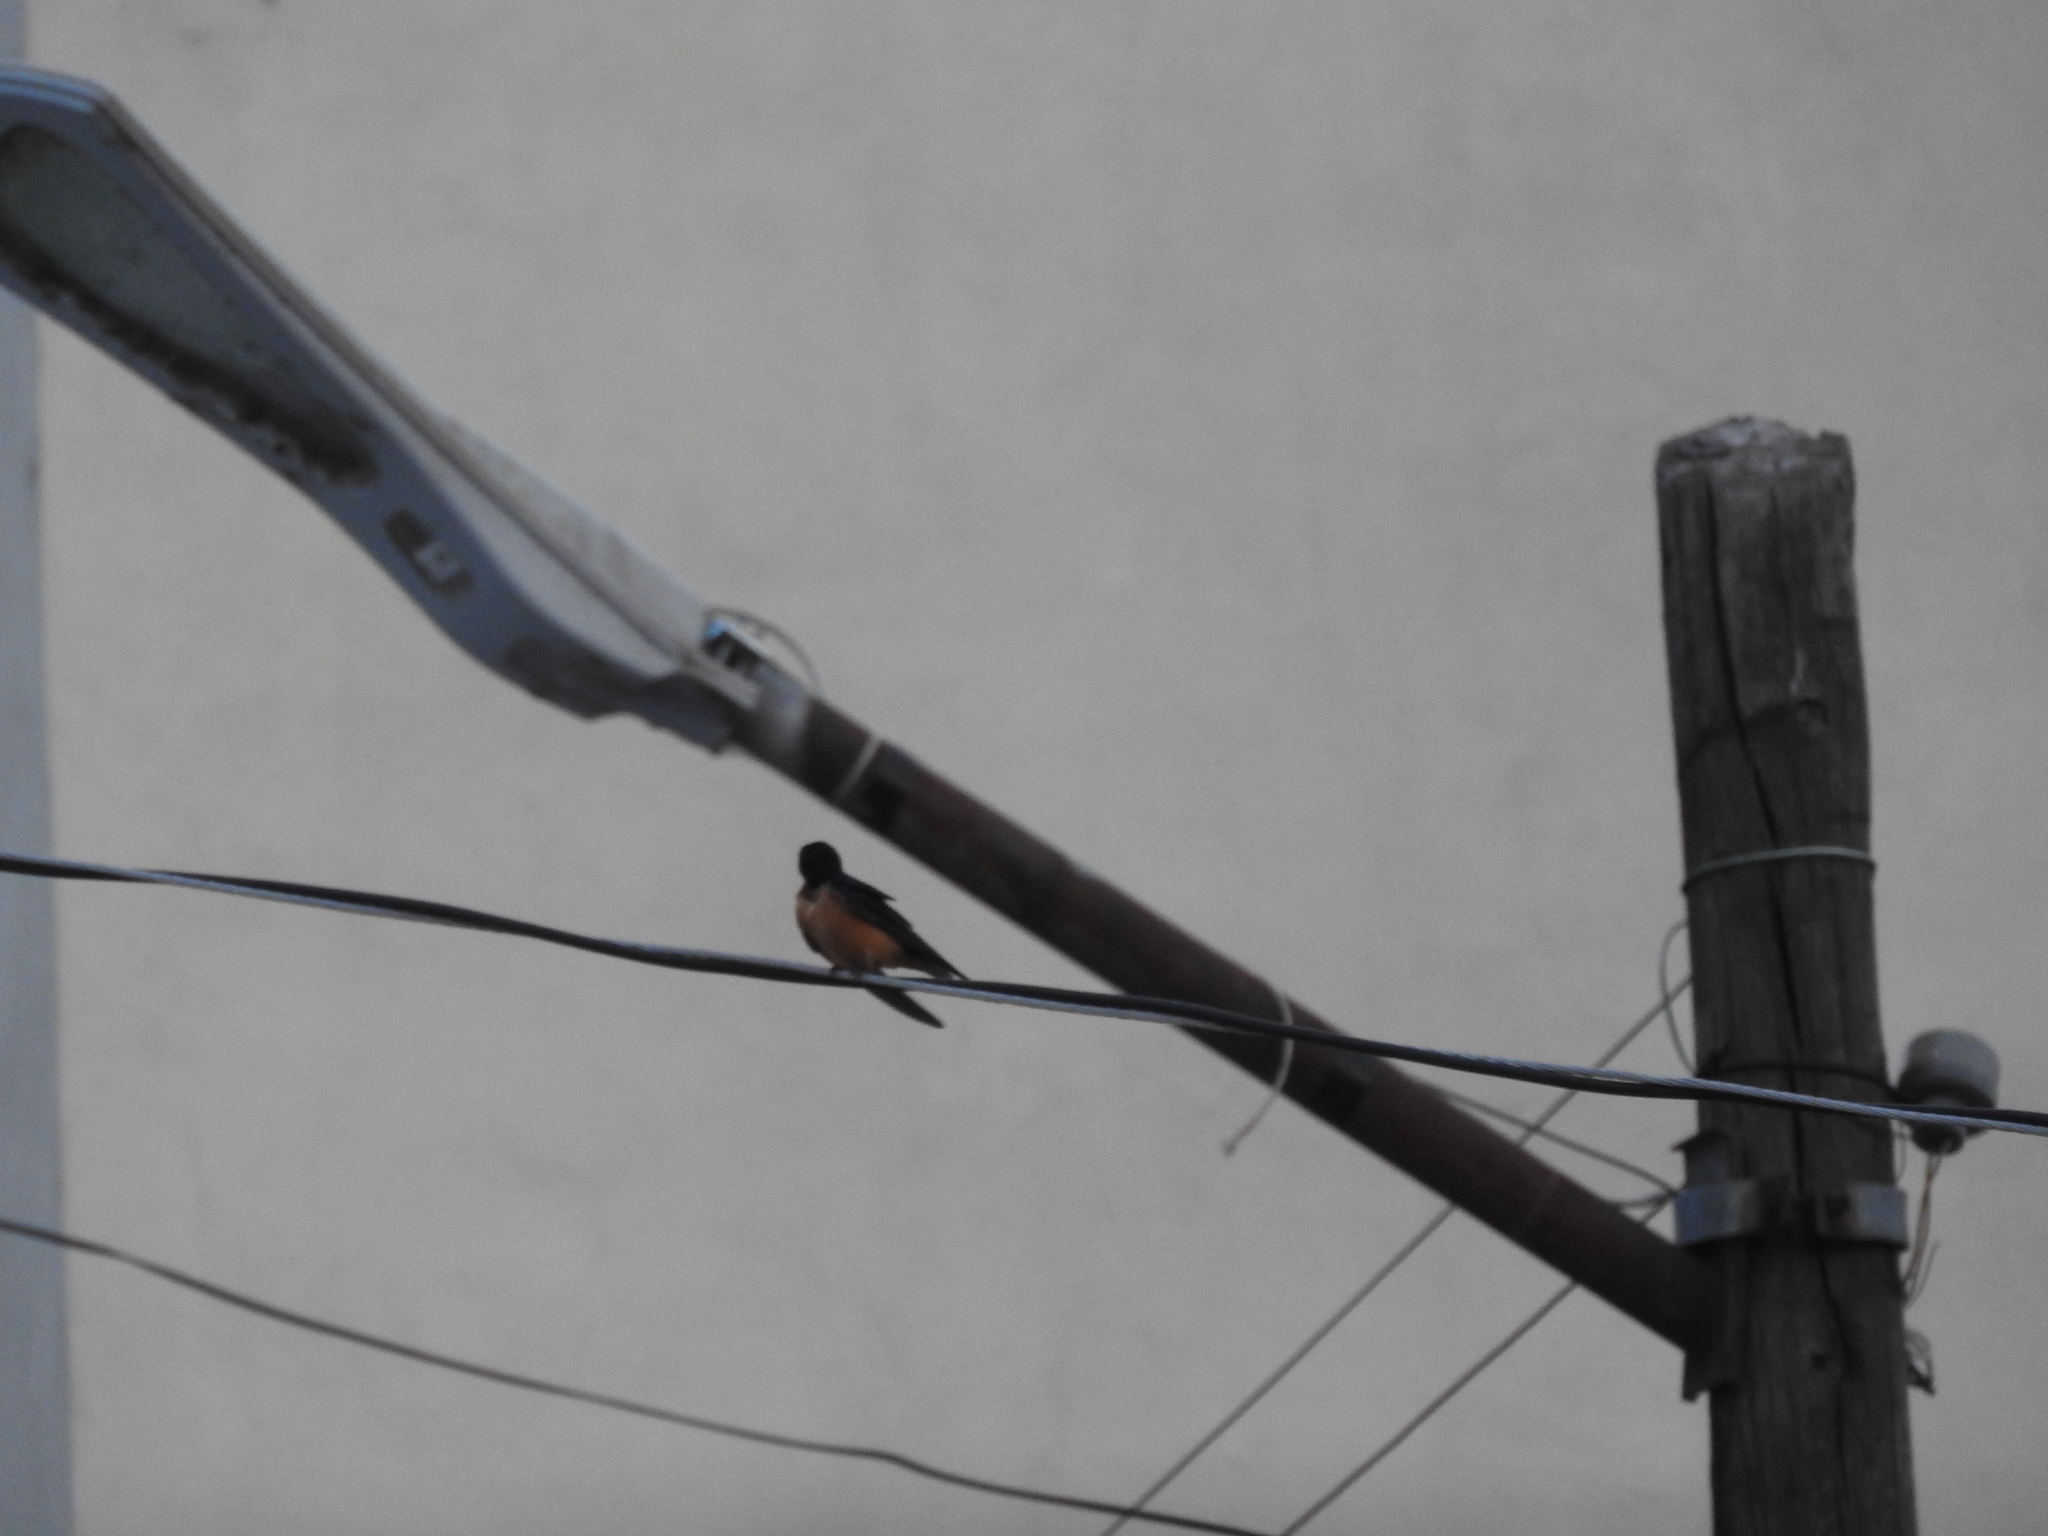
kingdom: Animalia
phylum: Chordata
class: Aves
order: Passeriformes
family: Hirundinidae
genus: Hirundo
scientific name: Hirundo rustica
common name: Barn swallow
